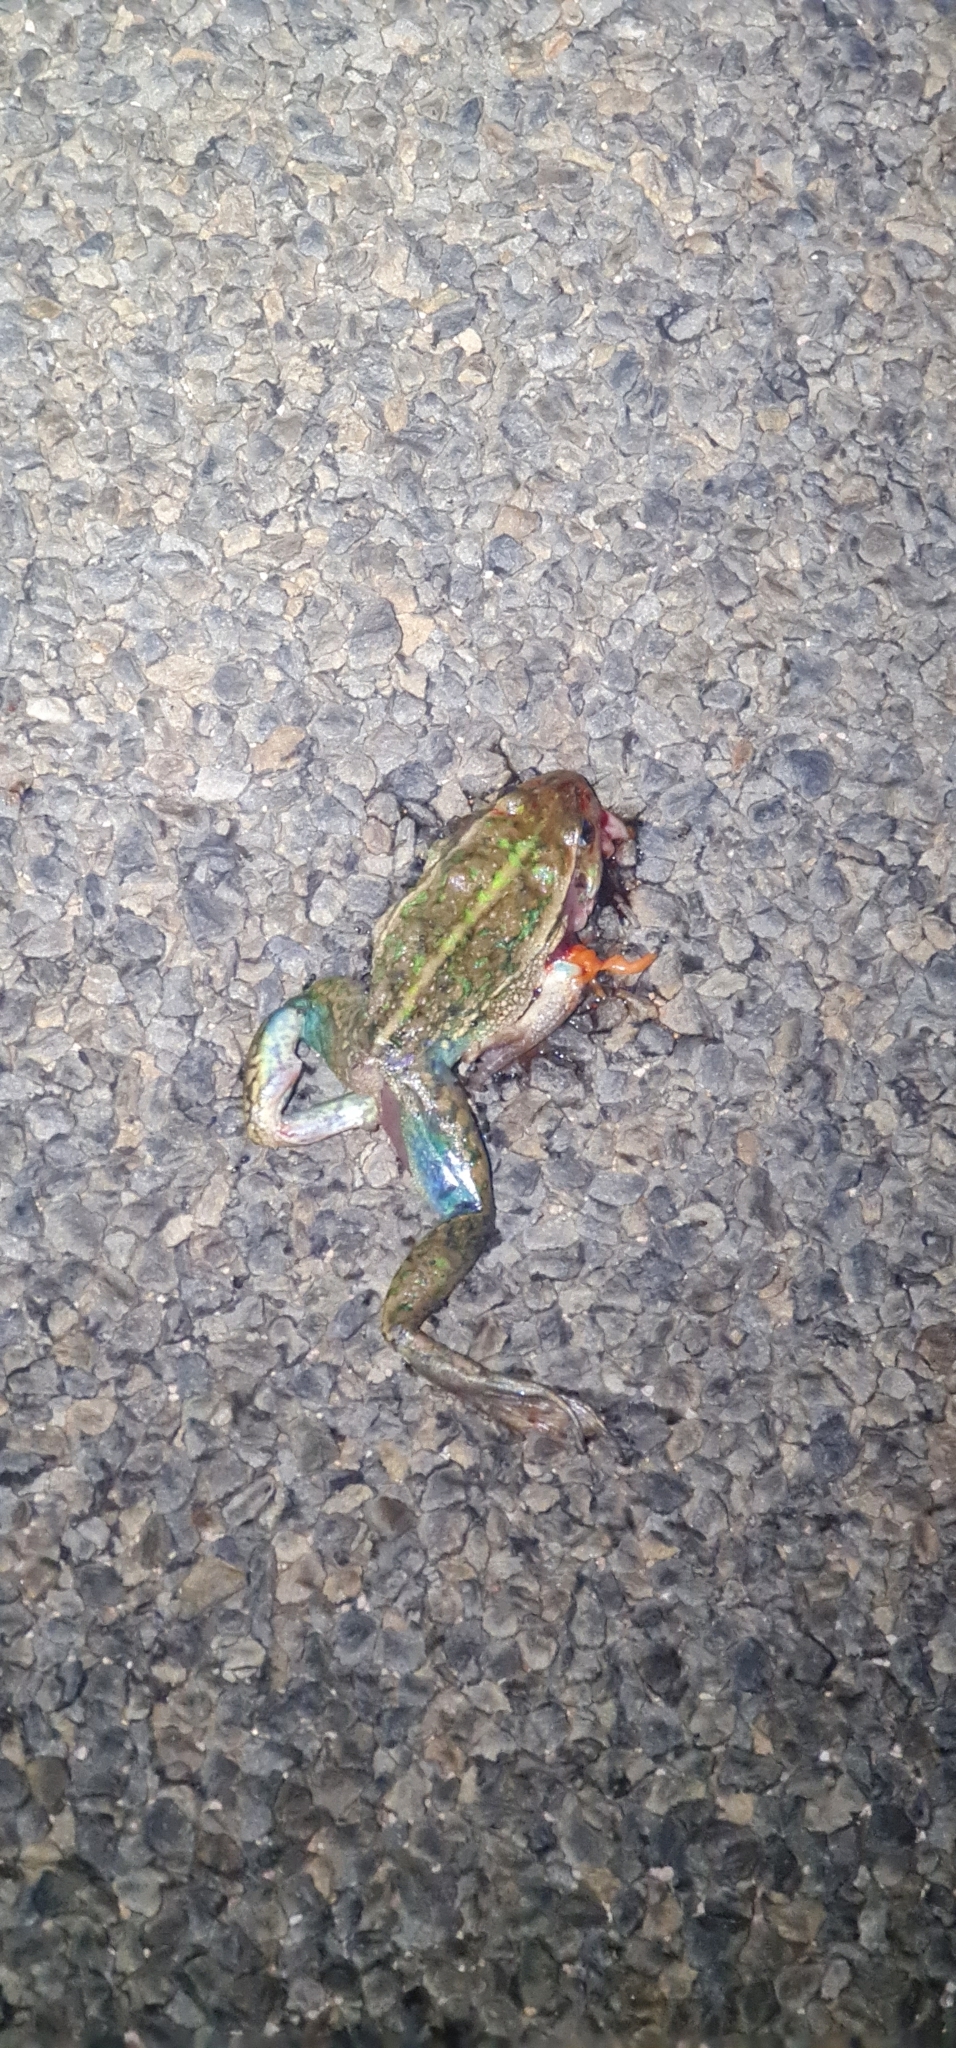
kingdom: Animalia
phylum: Chordata
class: Amphibia
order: Anura
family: Pelodryadidae
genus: Ranoidea
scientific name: Ranoidea raniformis
